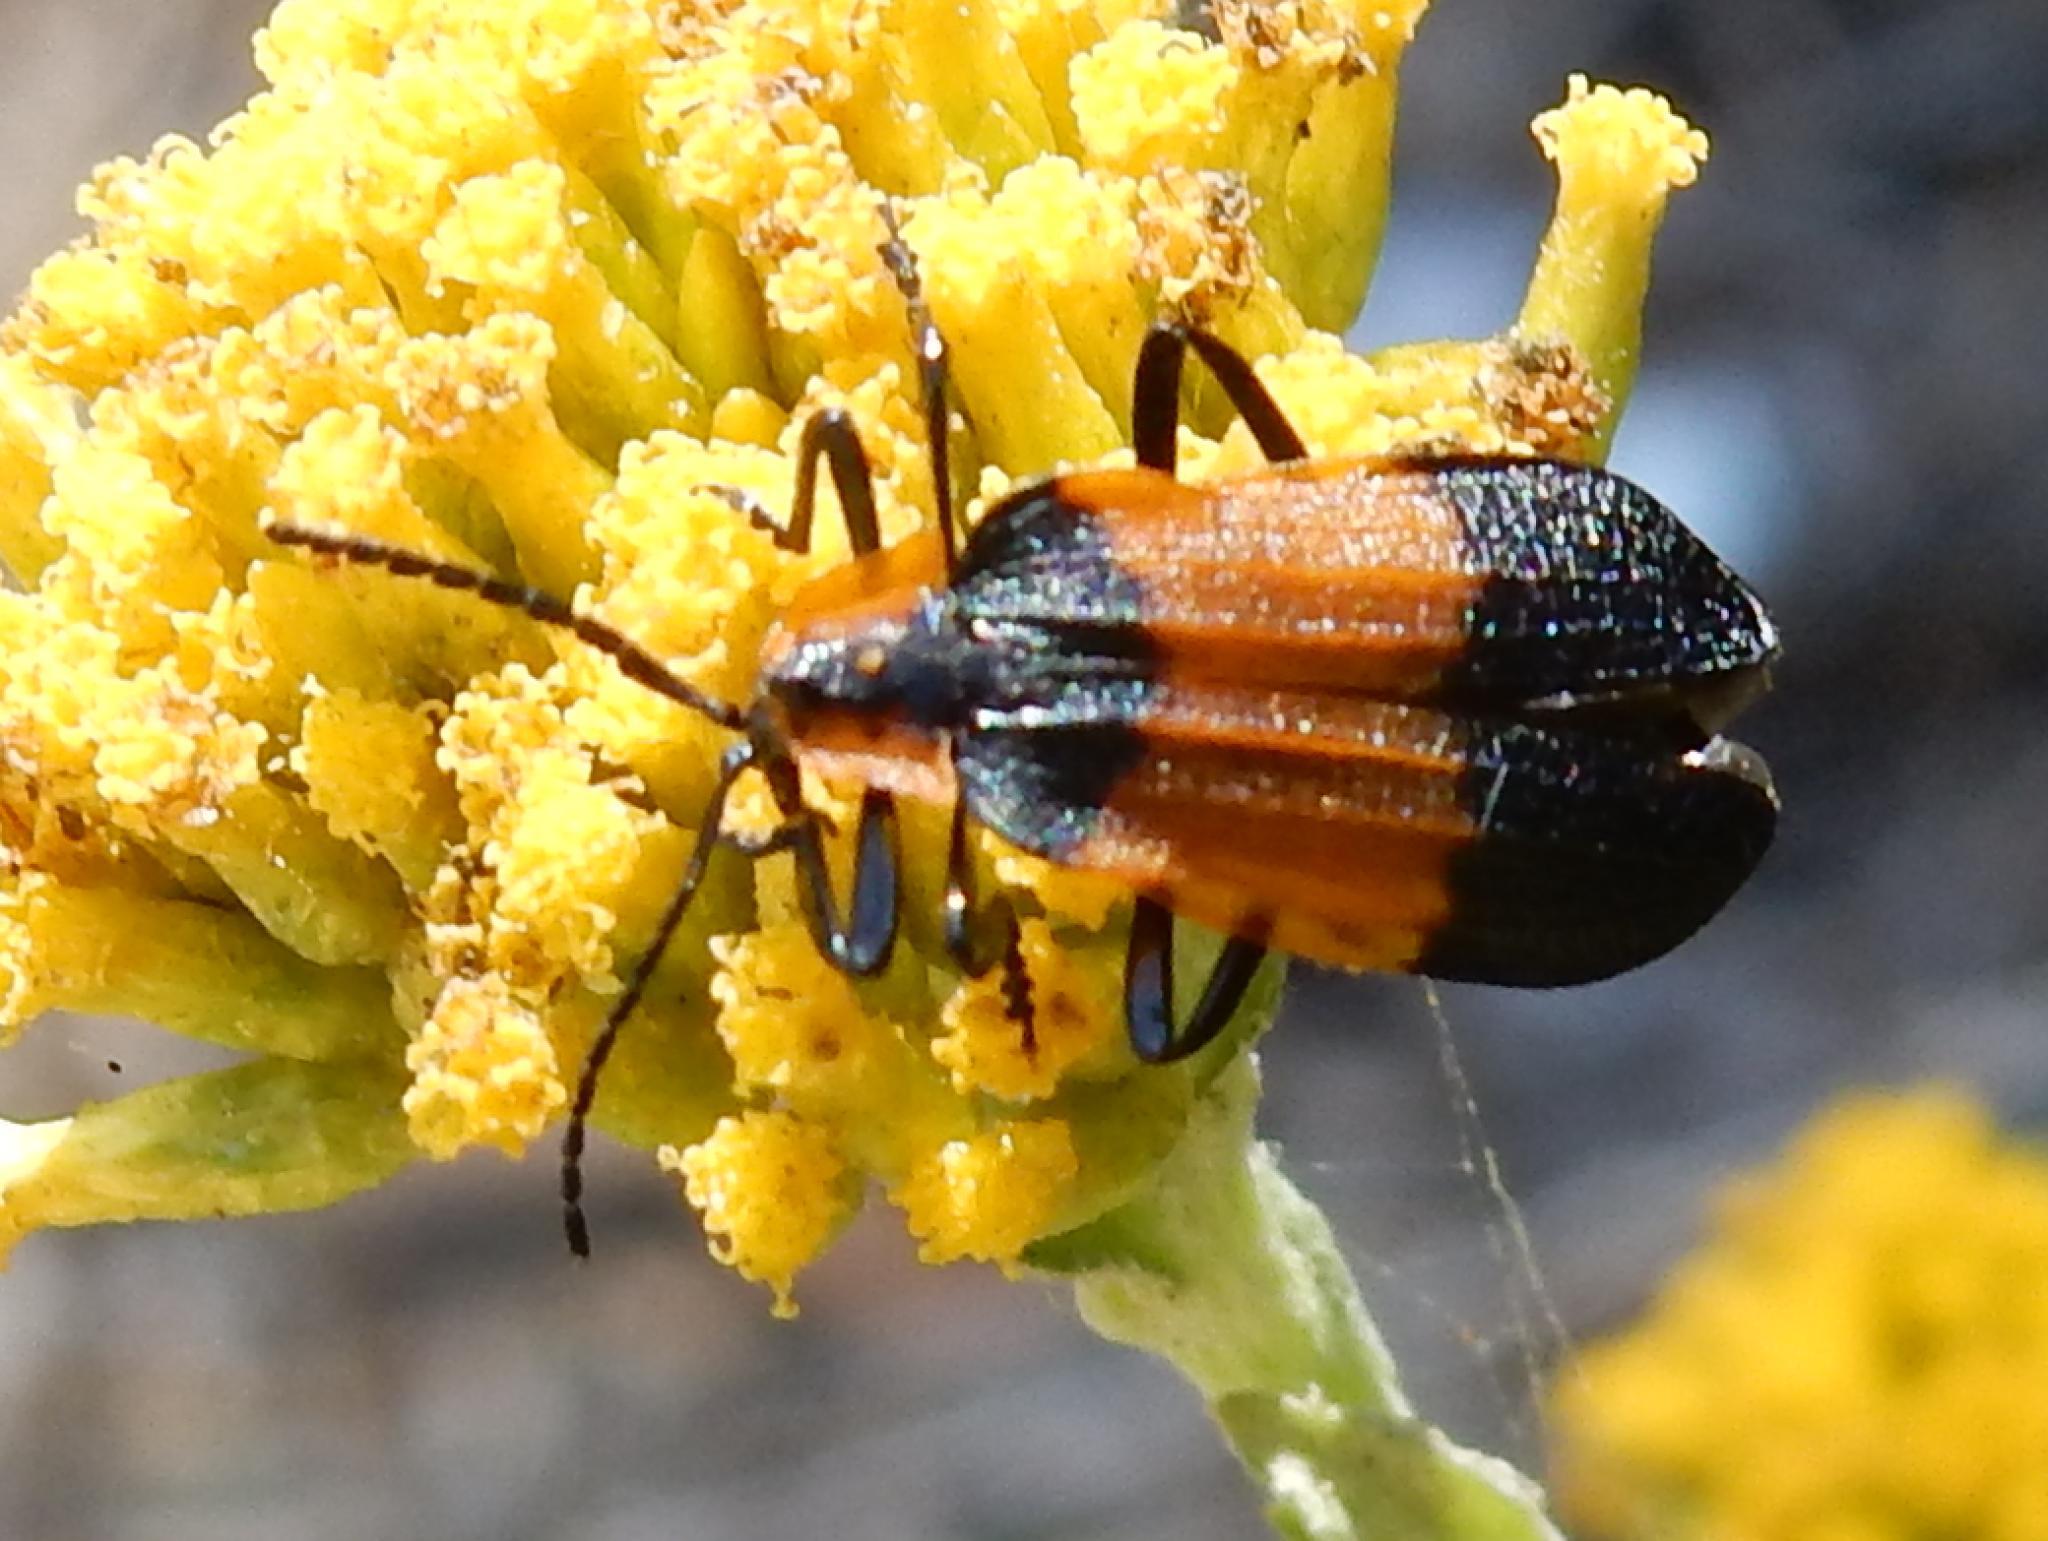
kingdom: Animalia
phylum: Arthropoda
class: Insecta
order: Coleoptera
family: Lycidae
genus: Lycus
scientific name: Lycus
